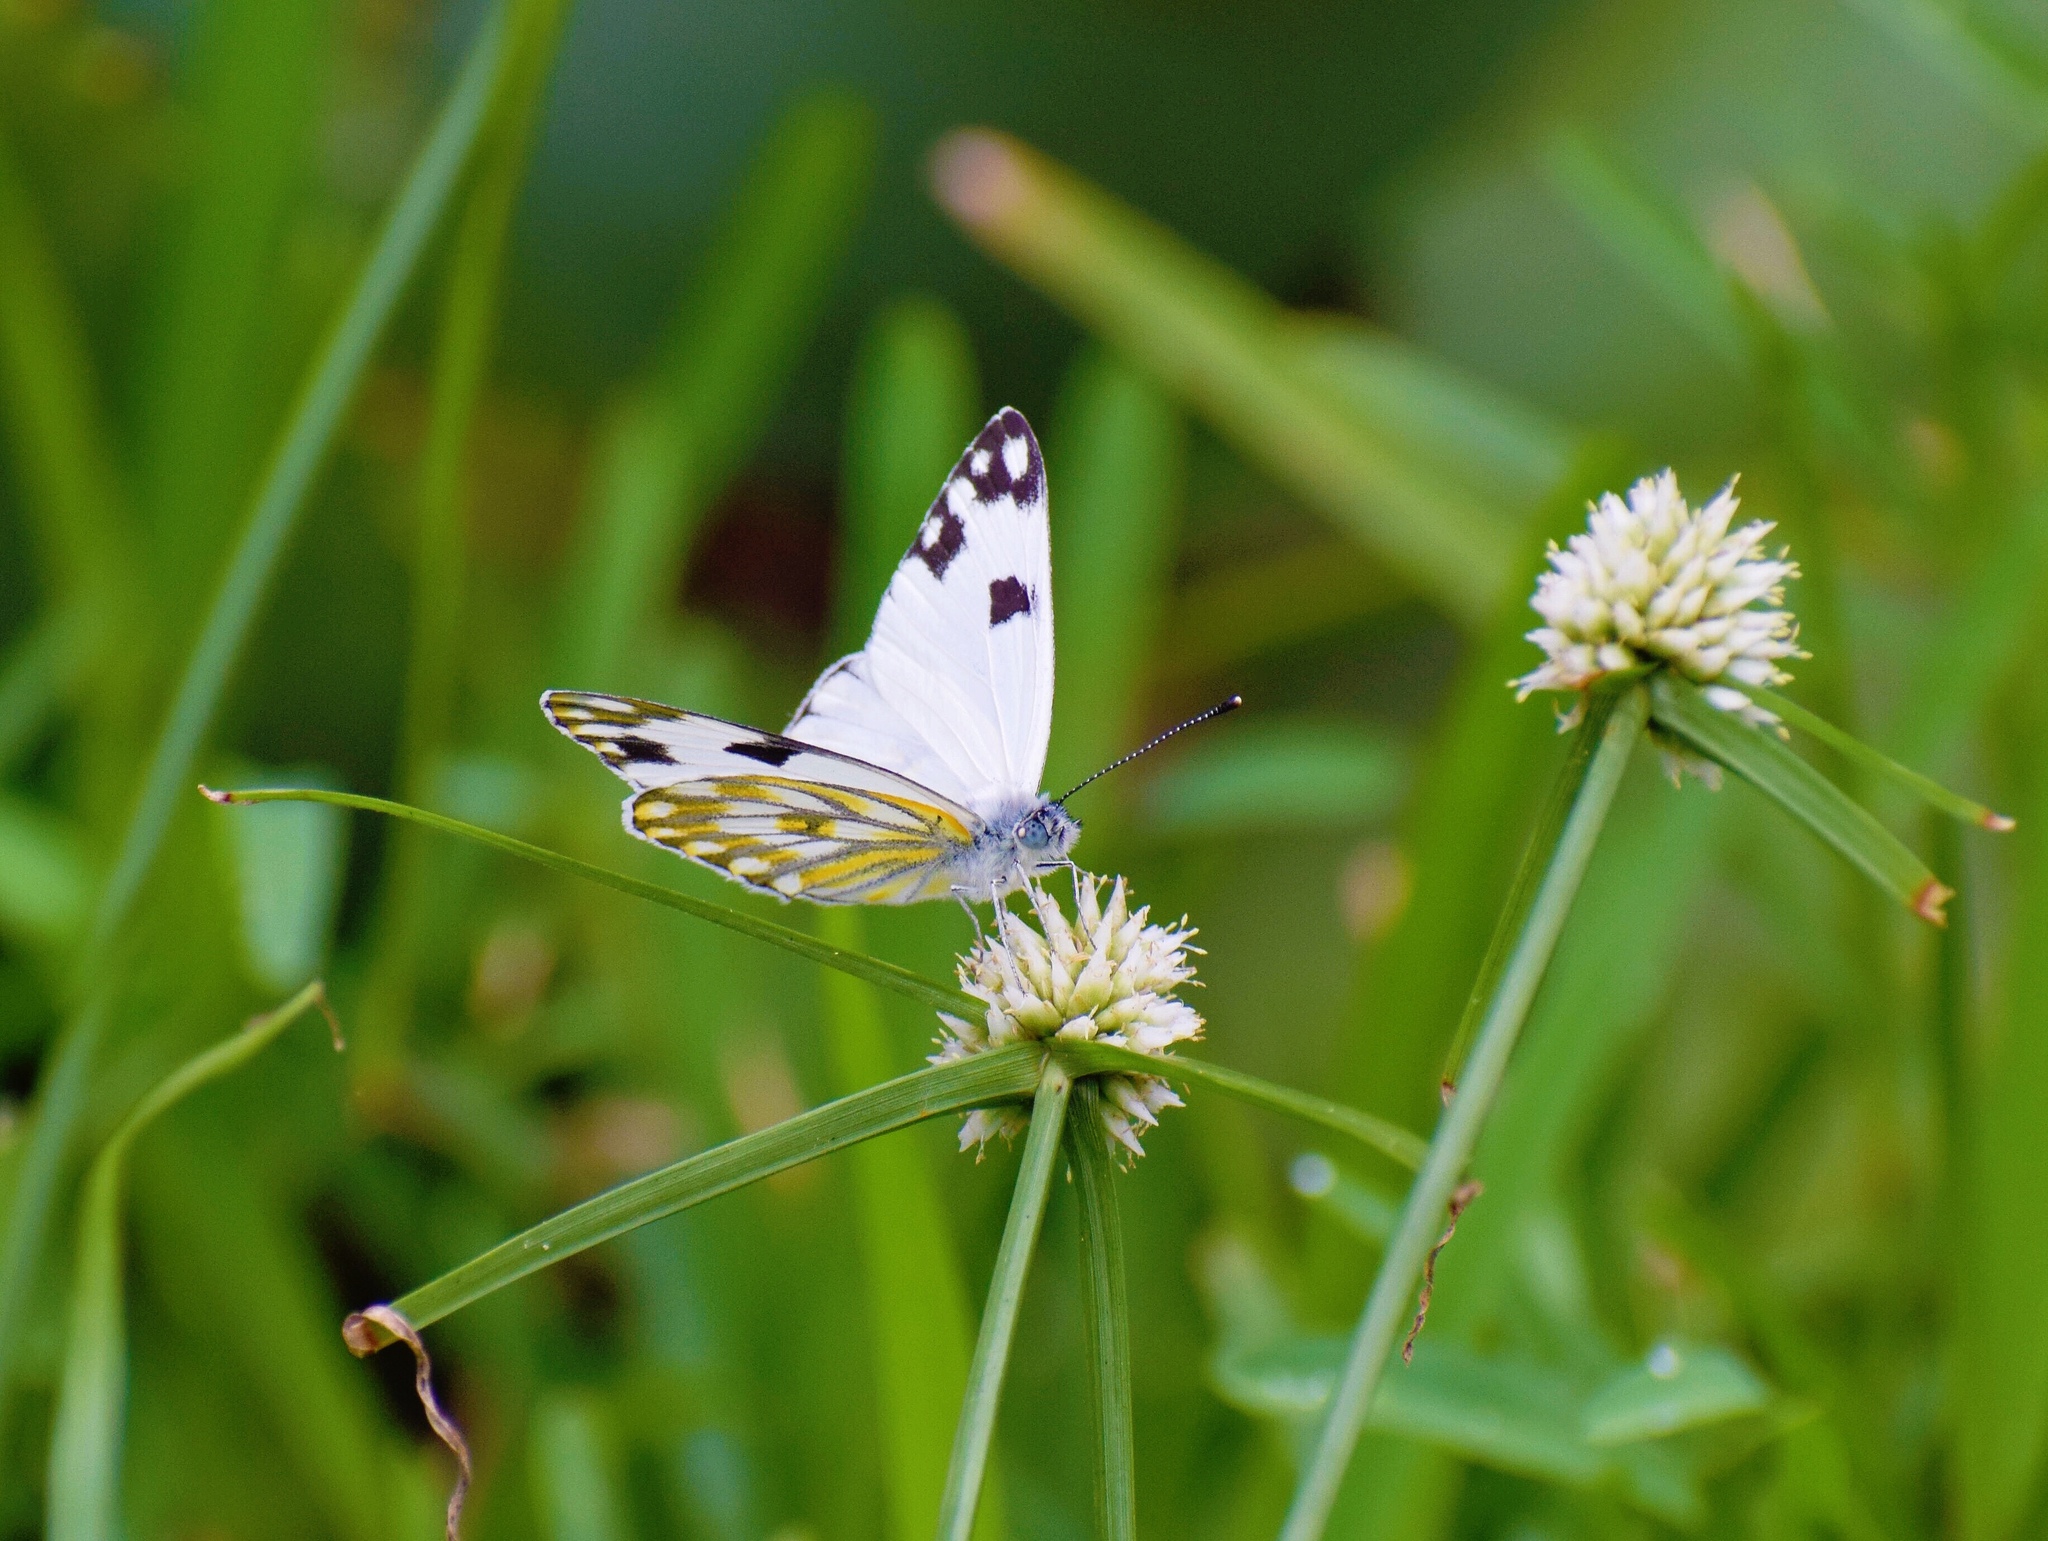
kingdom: Animalia
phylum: Arthropoda
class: Insecta
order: Lepidoptera
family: Pieridae
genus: Pontia
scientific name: Pontia helice
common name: Meadow white
